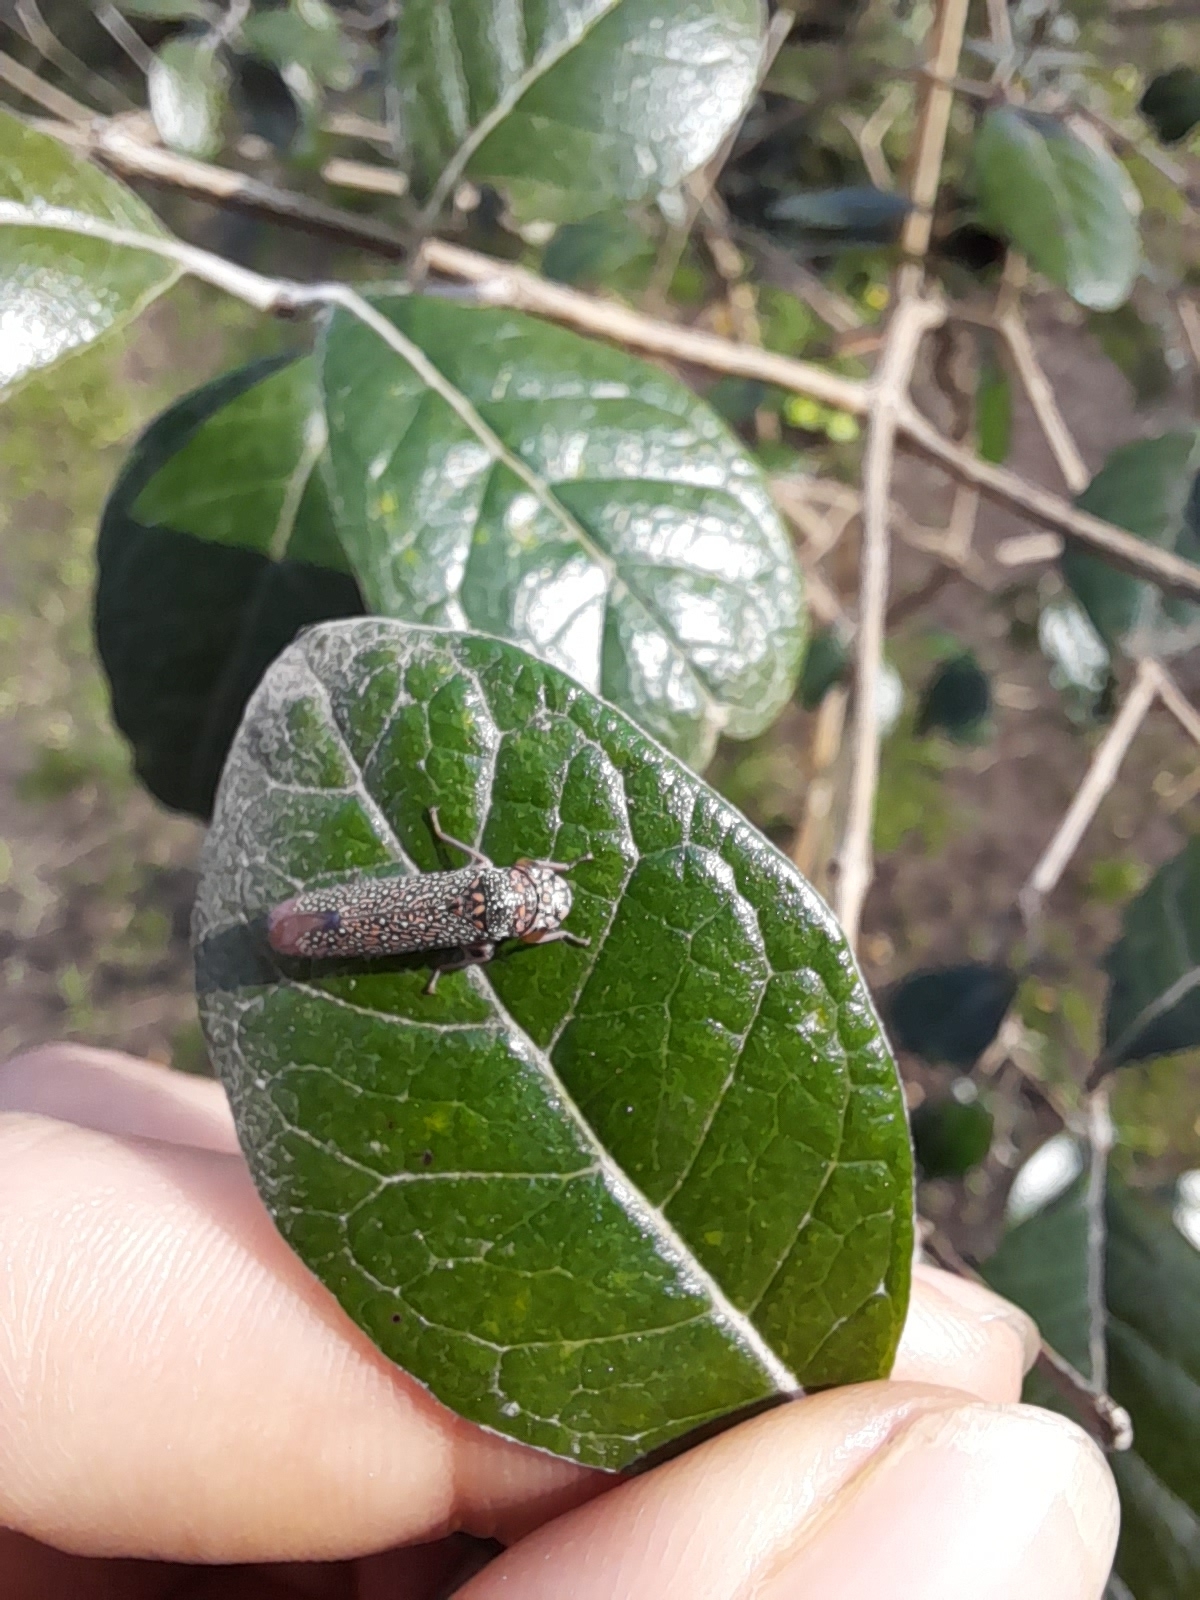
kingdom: Animalia
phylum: Arthropoda
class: Insecta
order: Hemiptera
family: Cicadellidae
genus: Molomea
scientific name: Molomea lineiceps
